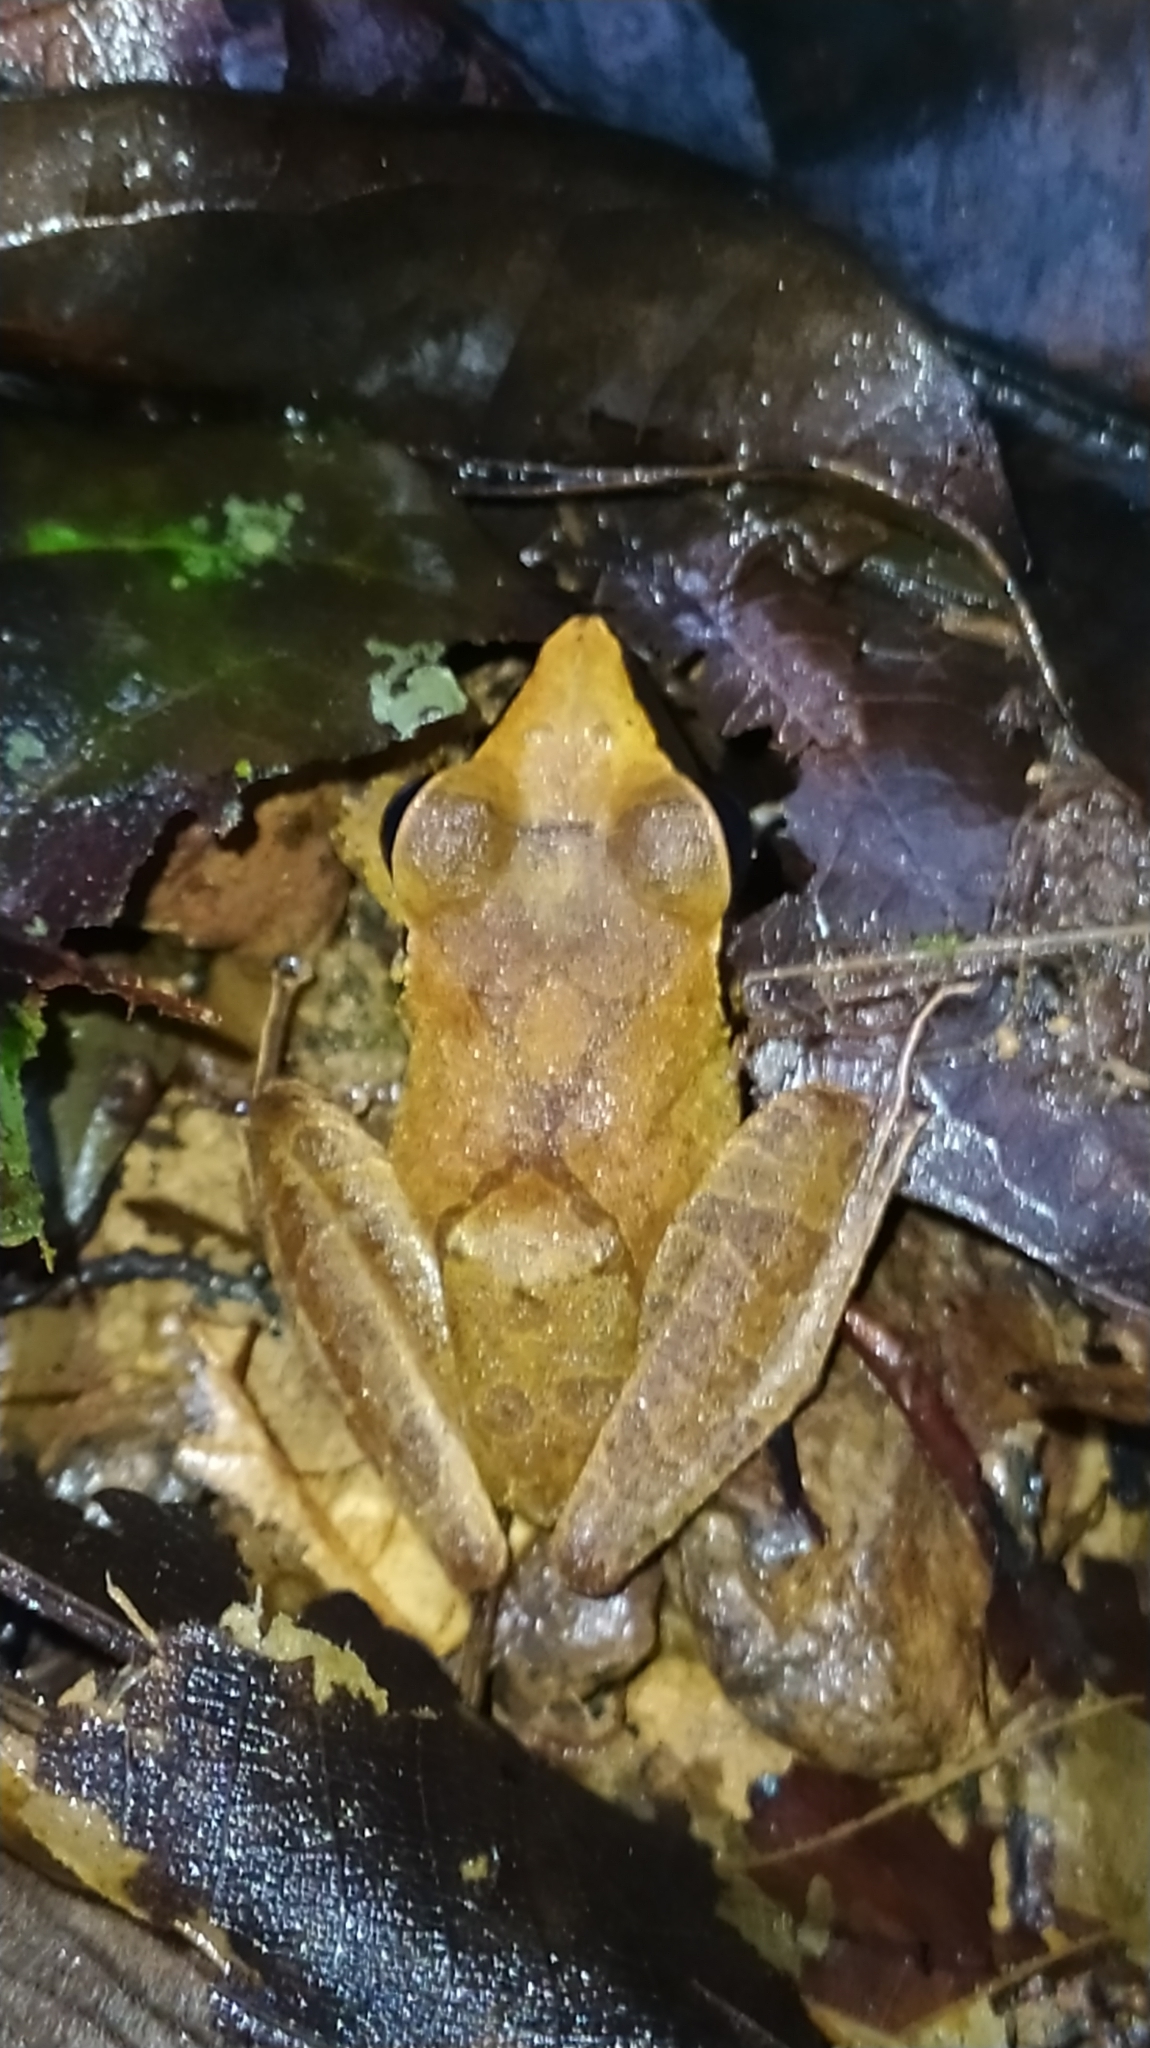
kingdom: Animalia
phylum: Chordata
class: Amphibia
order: Anura
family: Craugastoridae
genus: Pristimantis
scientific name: Pristimantis chiastonotus
